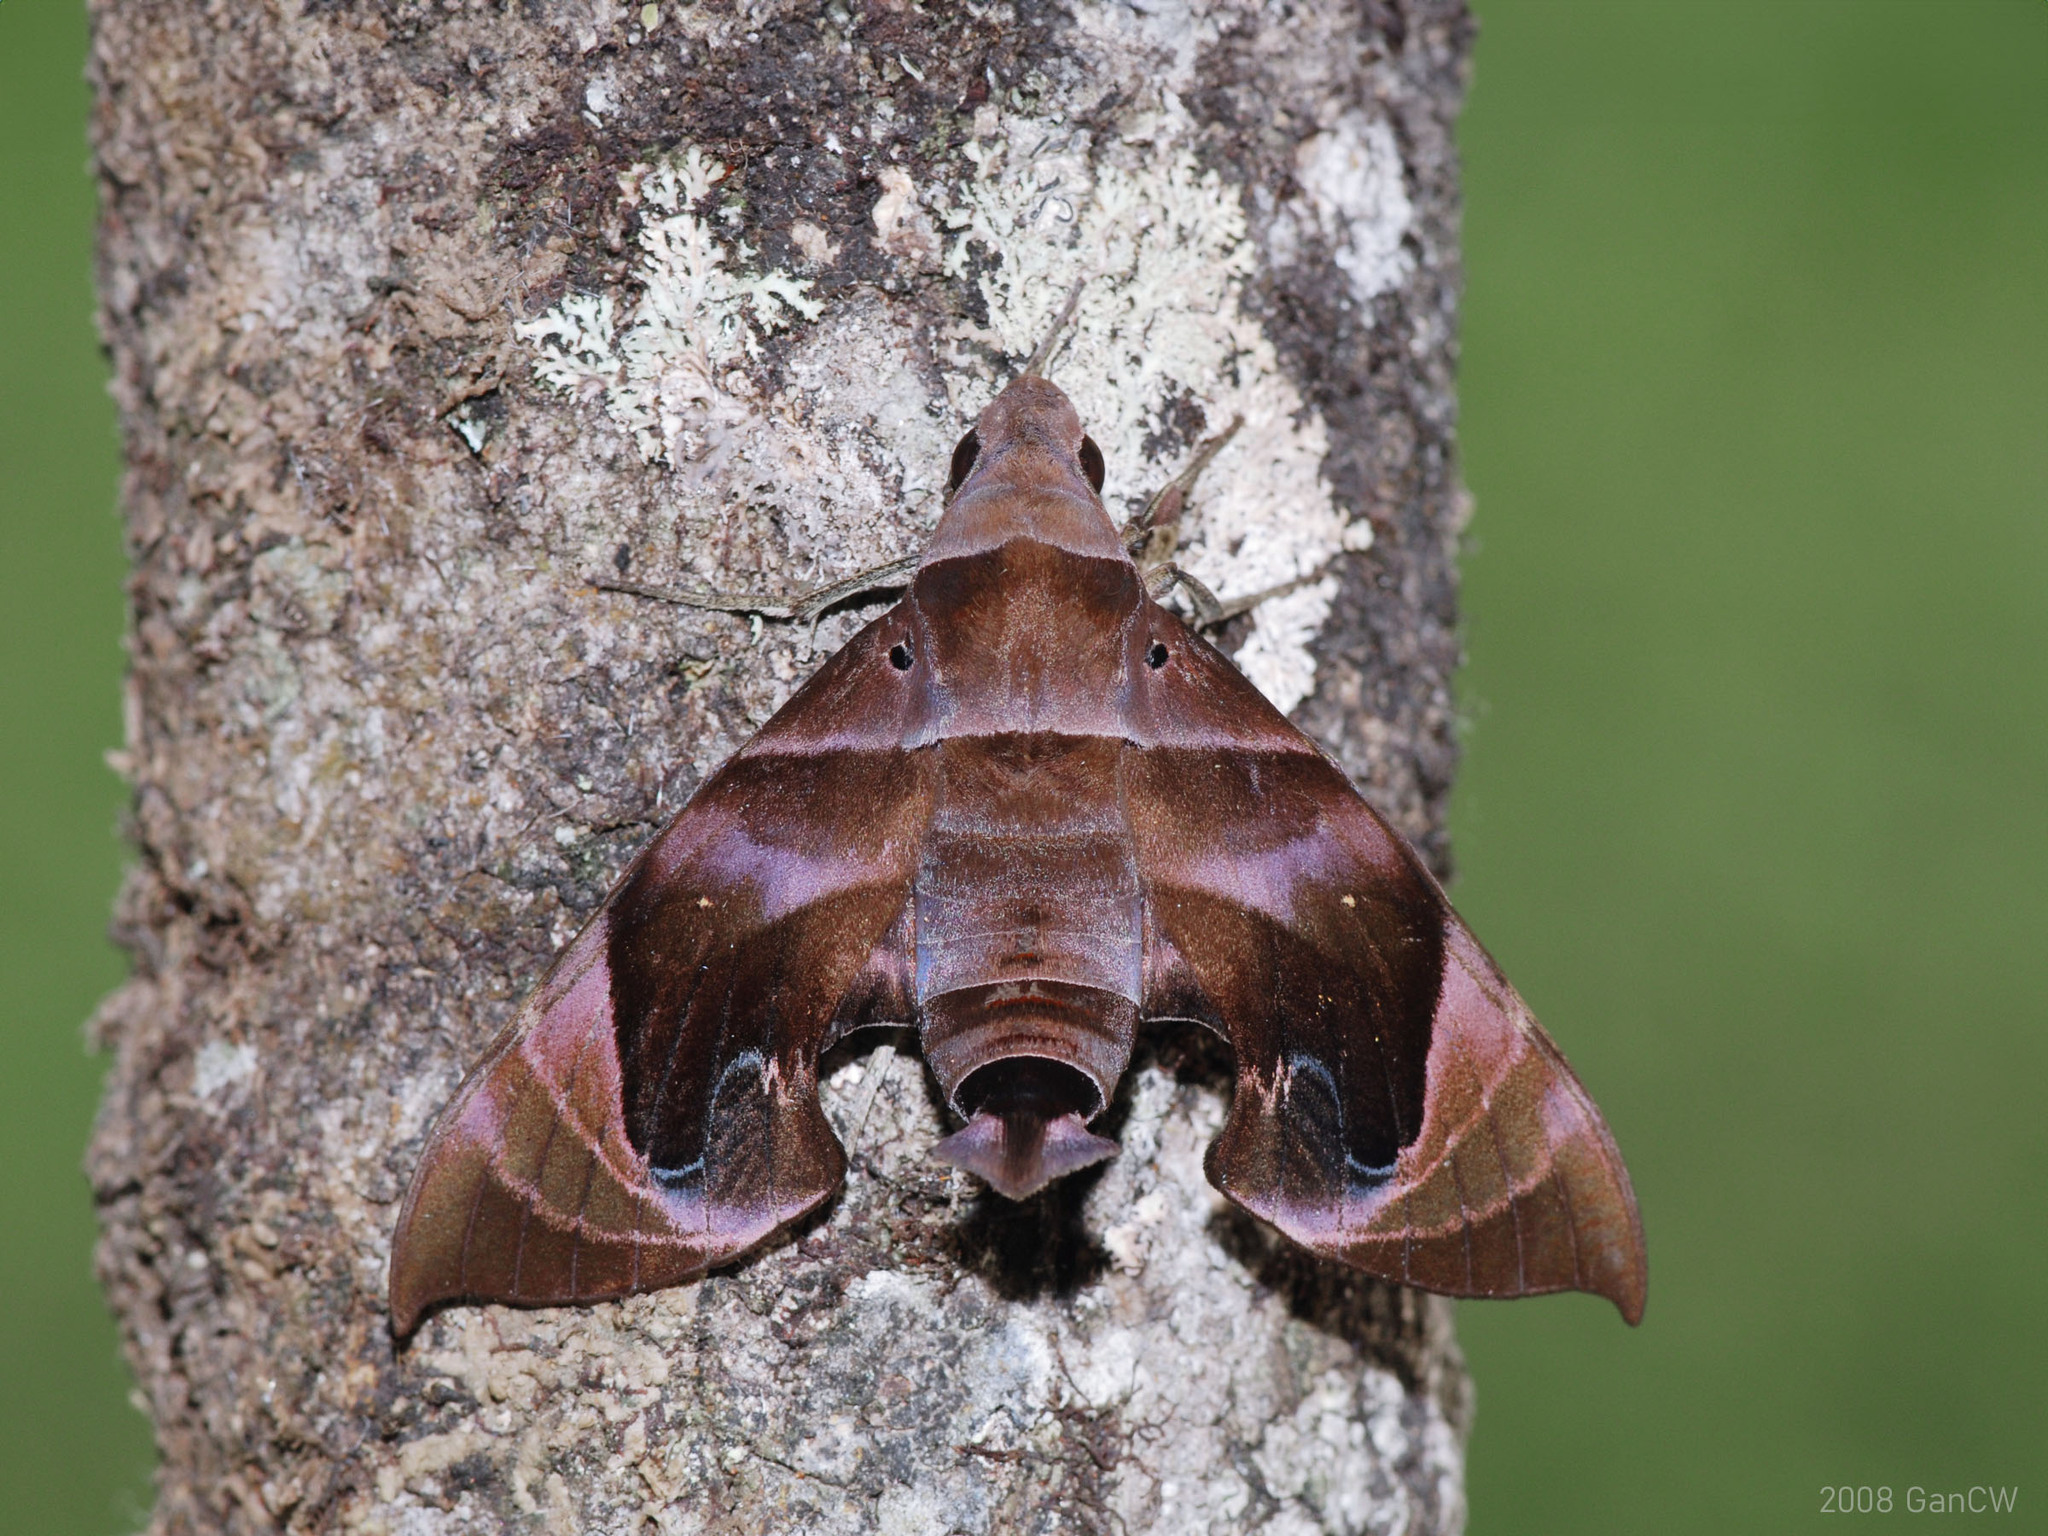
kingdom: Animalia
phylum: Arthropoda
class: Insecta
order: Lepidoptera
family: Sphingidae
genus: Eurypteryx
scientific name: Eurypteryx bhaga
